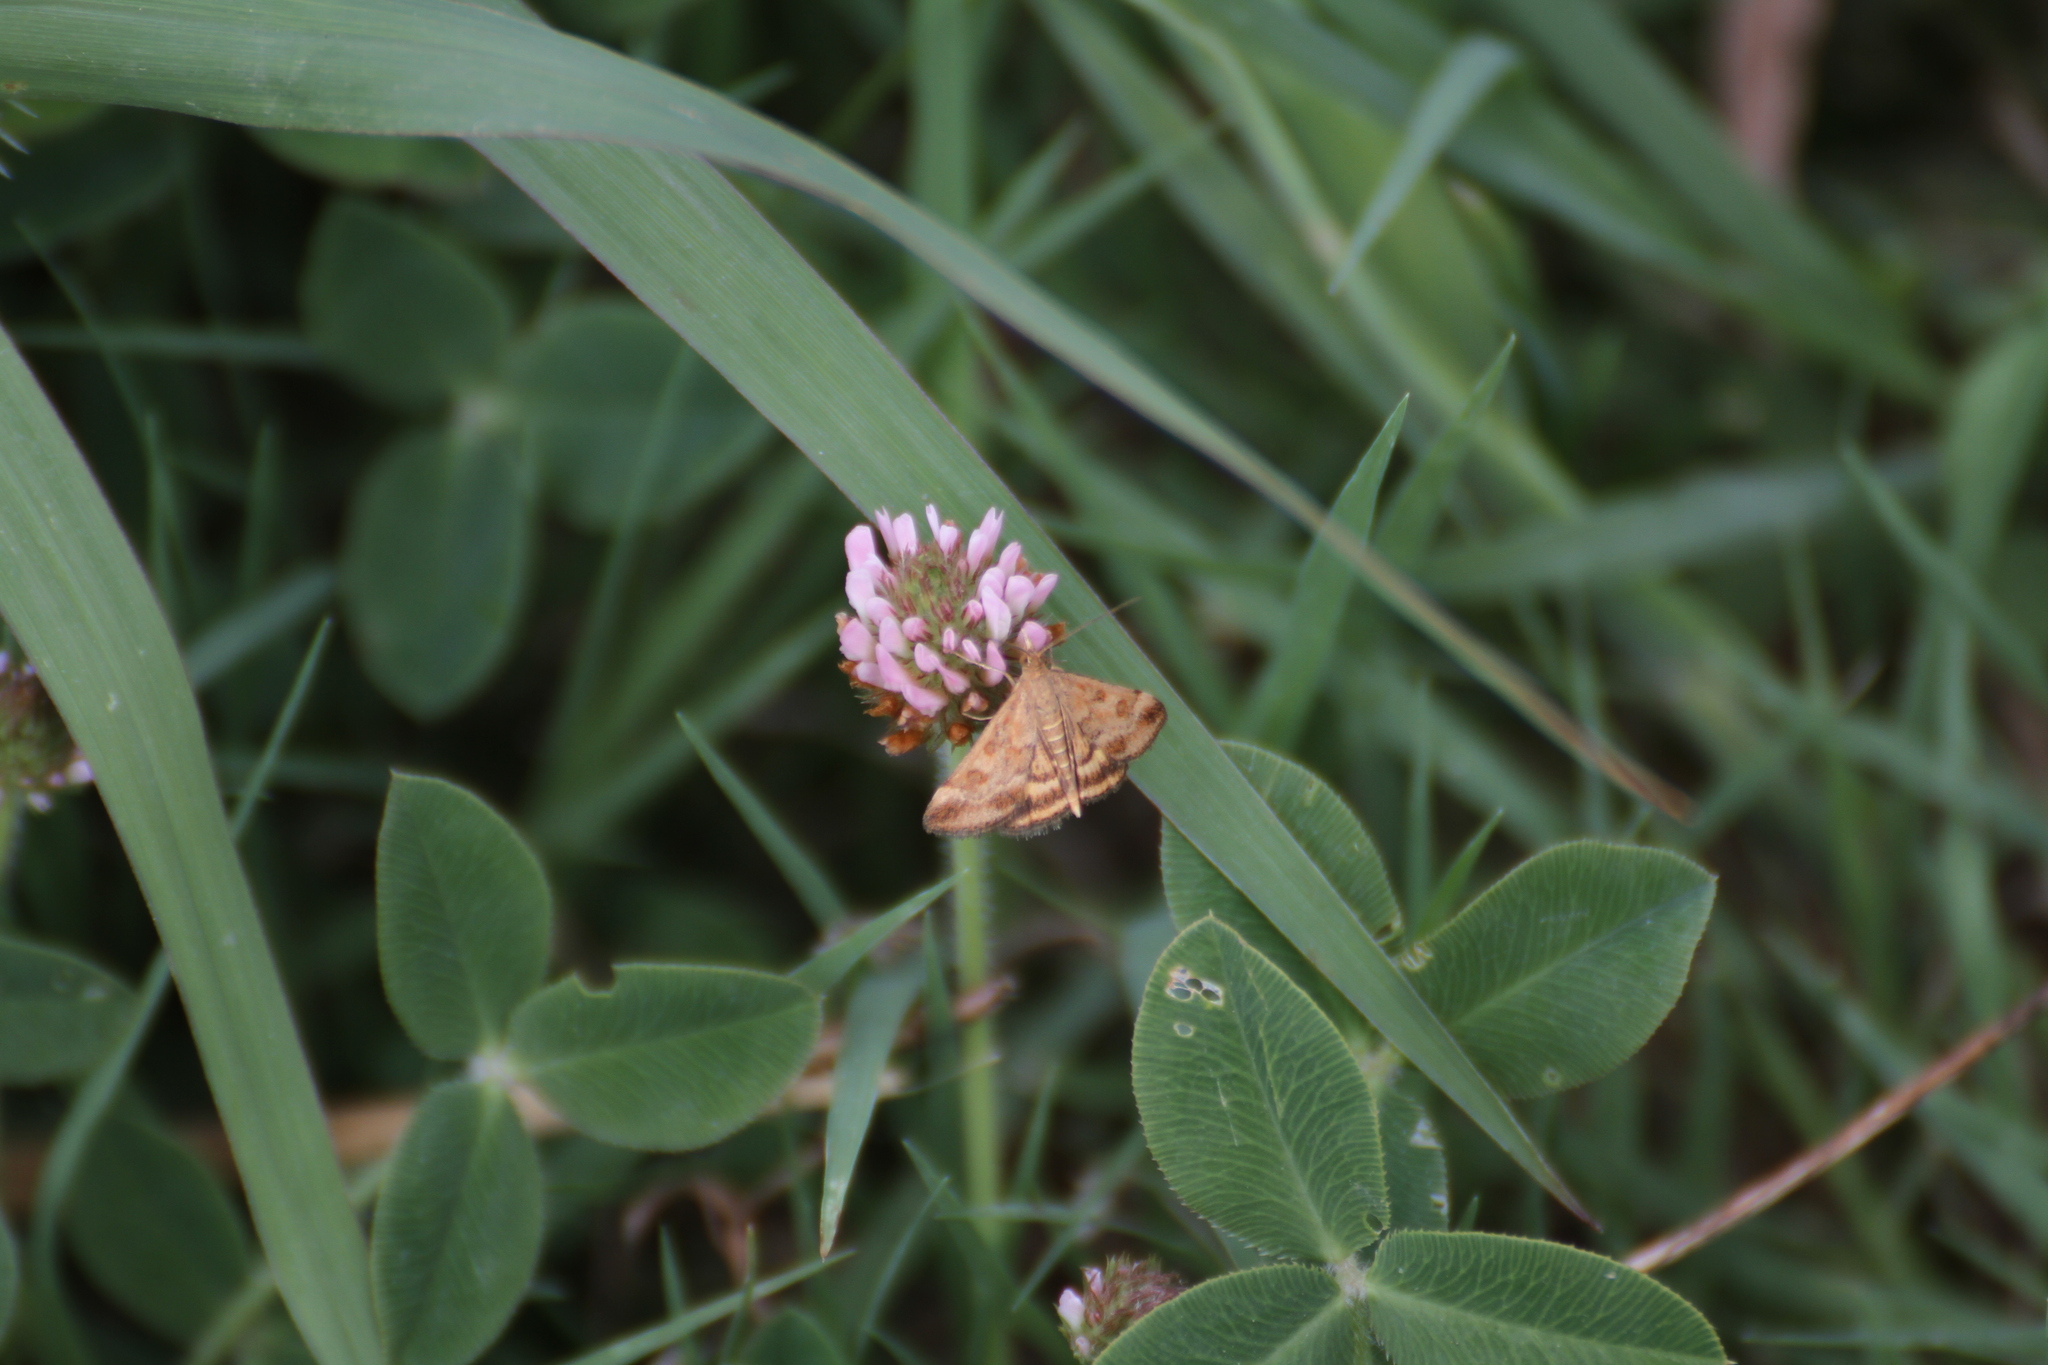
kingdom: Animalia
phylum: Arthropoda
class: Insecta
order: Lepidoptera
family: Crambidae
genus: Pyrausta
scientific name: Pyrausta despicata
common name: Straw-barred pearl
